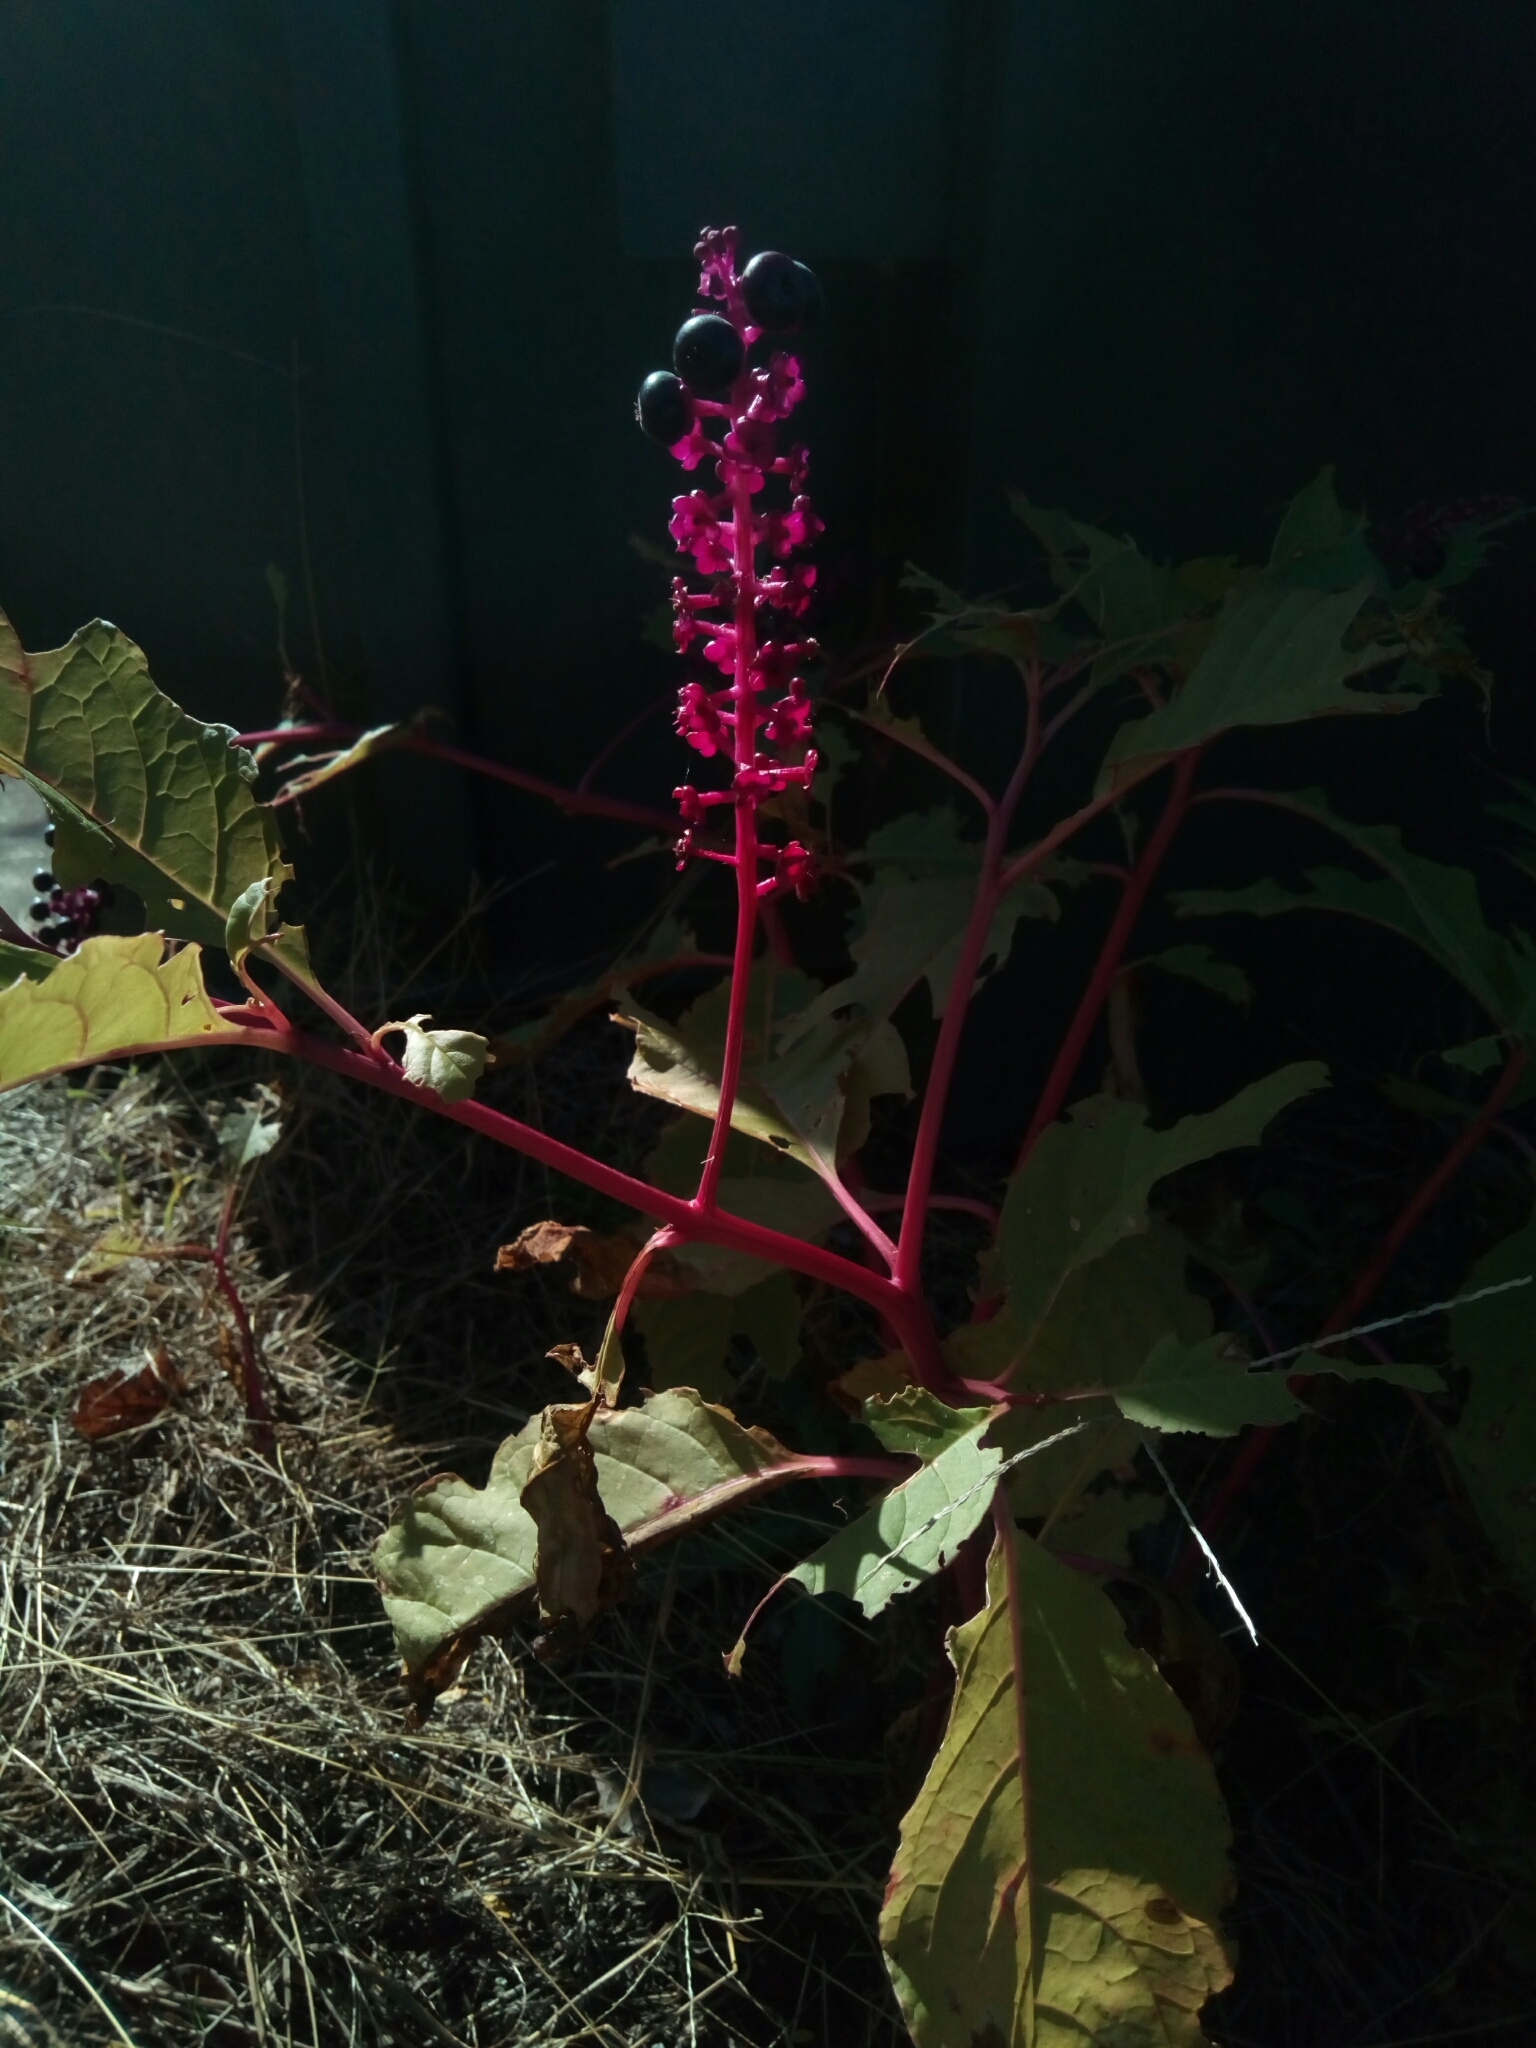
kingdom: Plantae
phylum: Tracheophyta
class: Magnoliopsida
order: Caryophyllales
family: Phytolaccaceae
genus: Phytolacca
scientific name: Phytolacca americana
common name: American pokeweed
